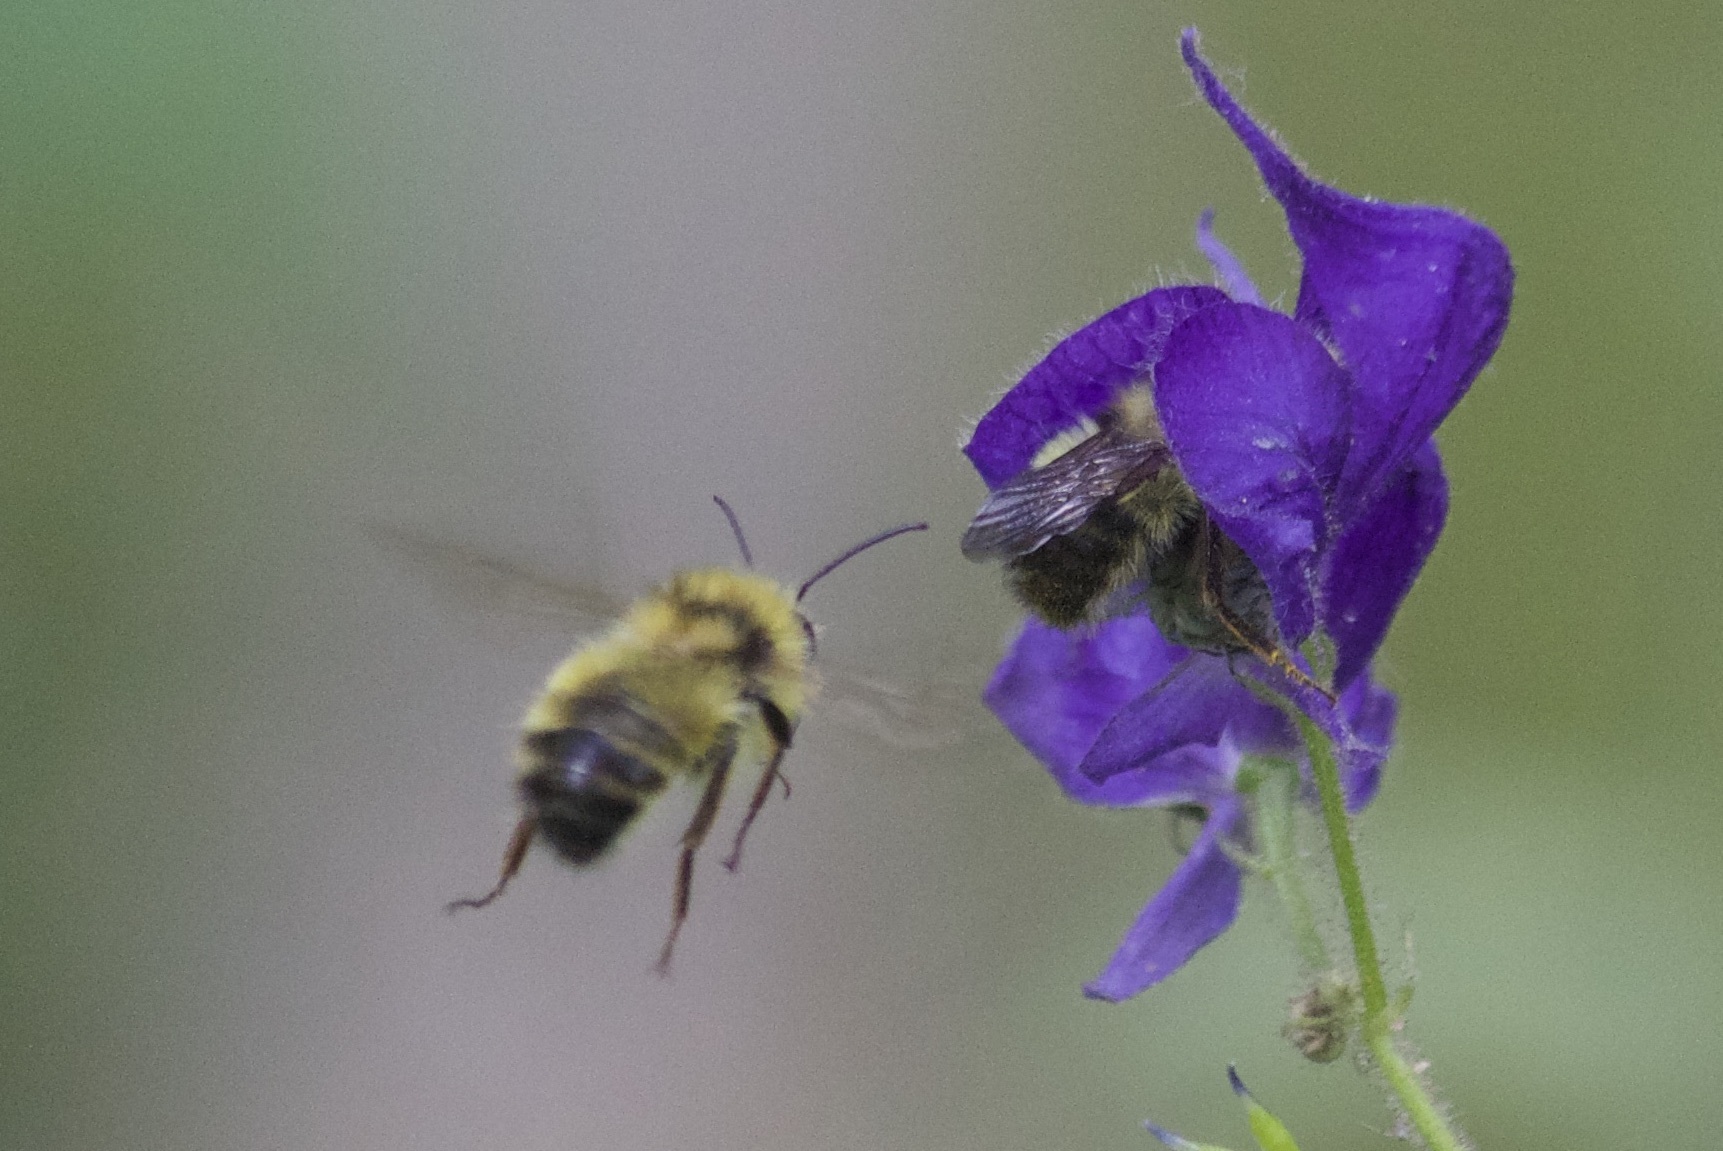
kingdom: Animalia
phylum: Arthropoda
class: Insecta
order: Hymenoptera
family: Apidae
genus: Bombus
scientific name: Bombus flavifrons
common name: Yellow head bumble bee
